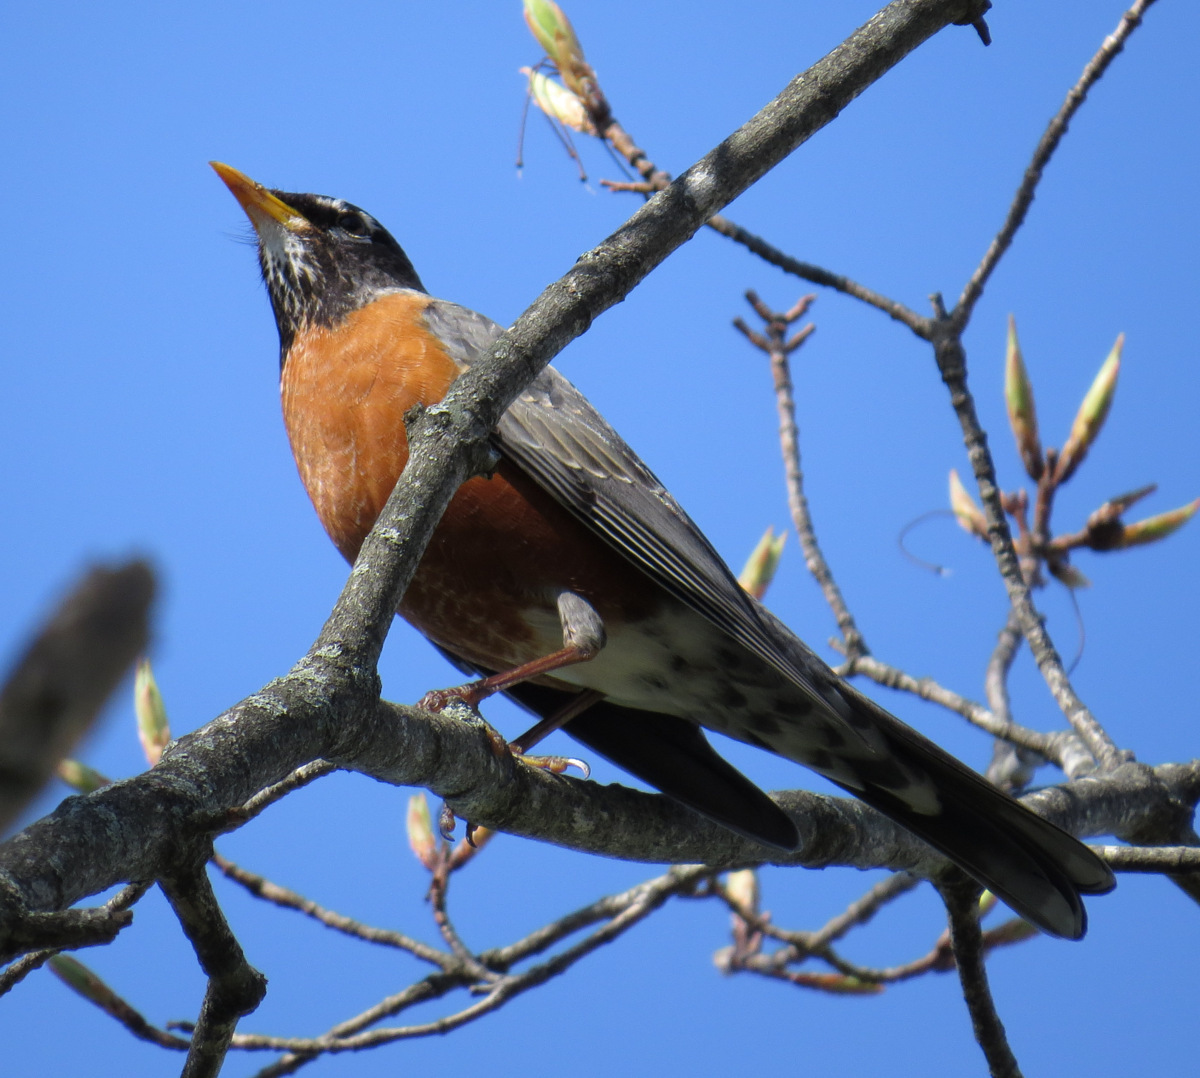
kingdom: Animalia
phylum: Chordata
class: Aves
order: Passeriformes
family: Turdidae
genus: Turdus
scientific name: Turdus migratorius
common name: American robin
